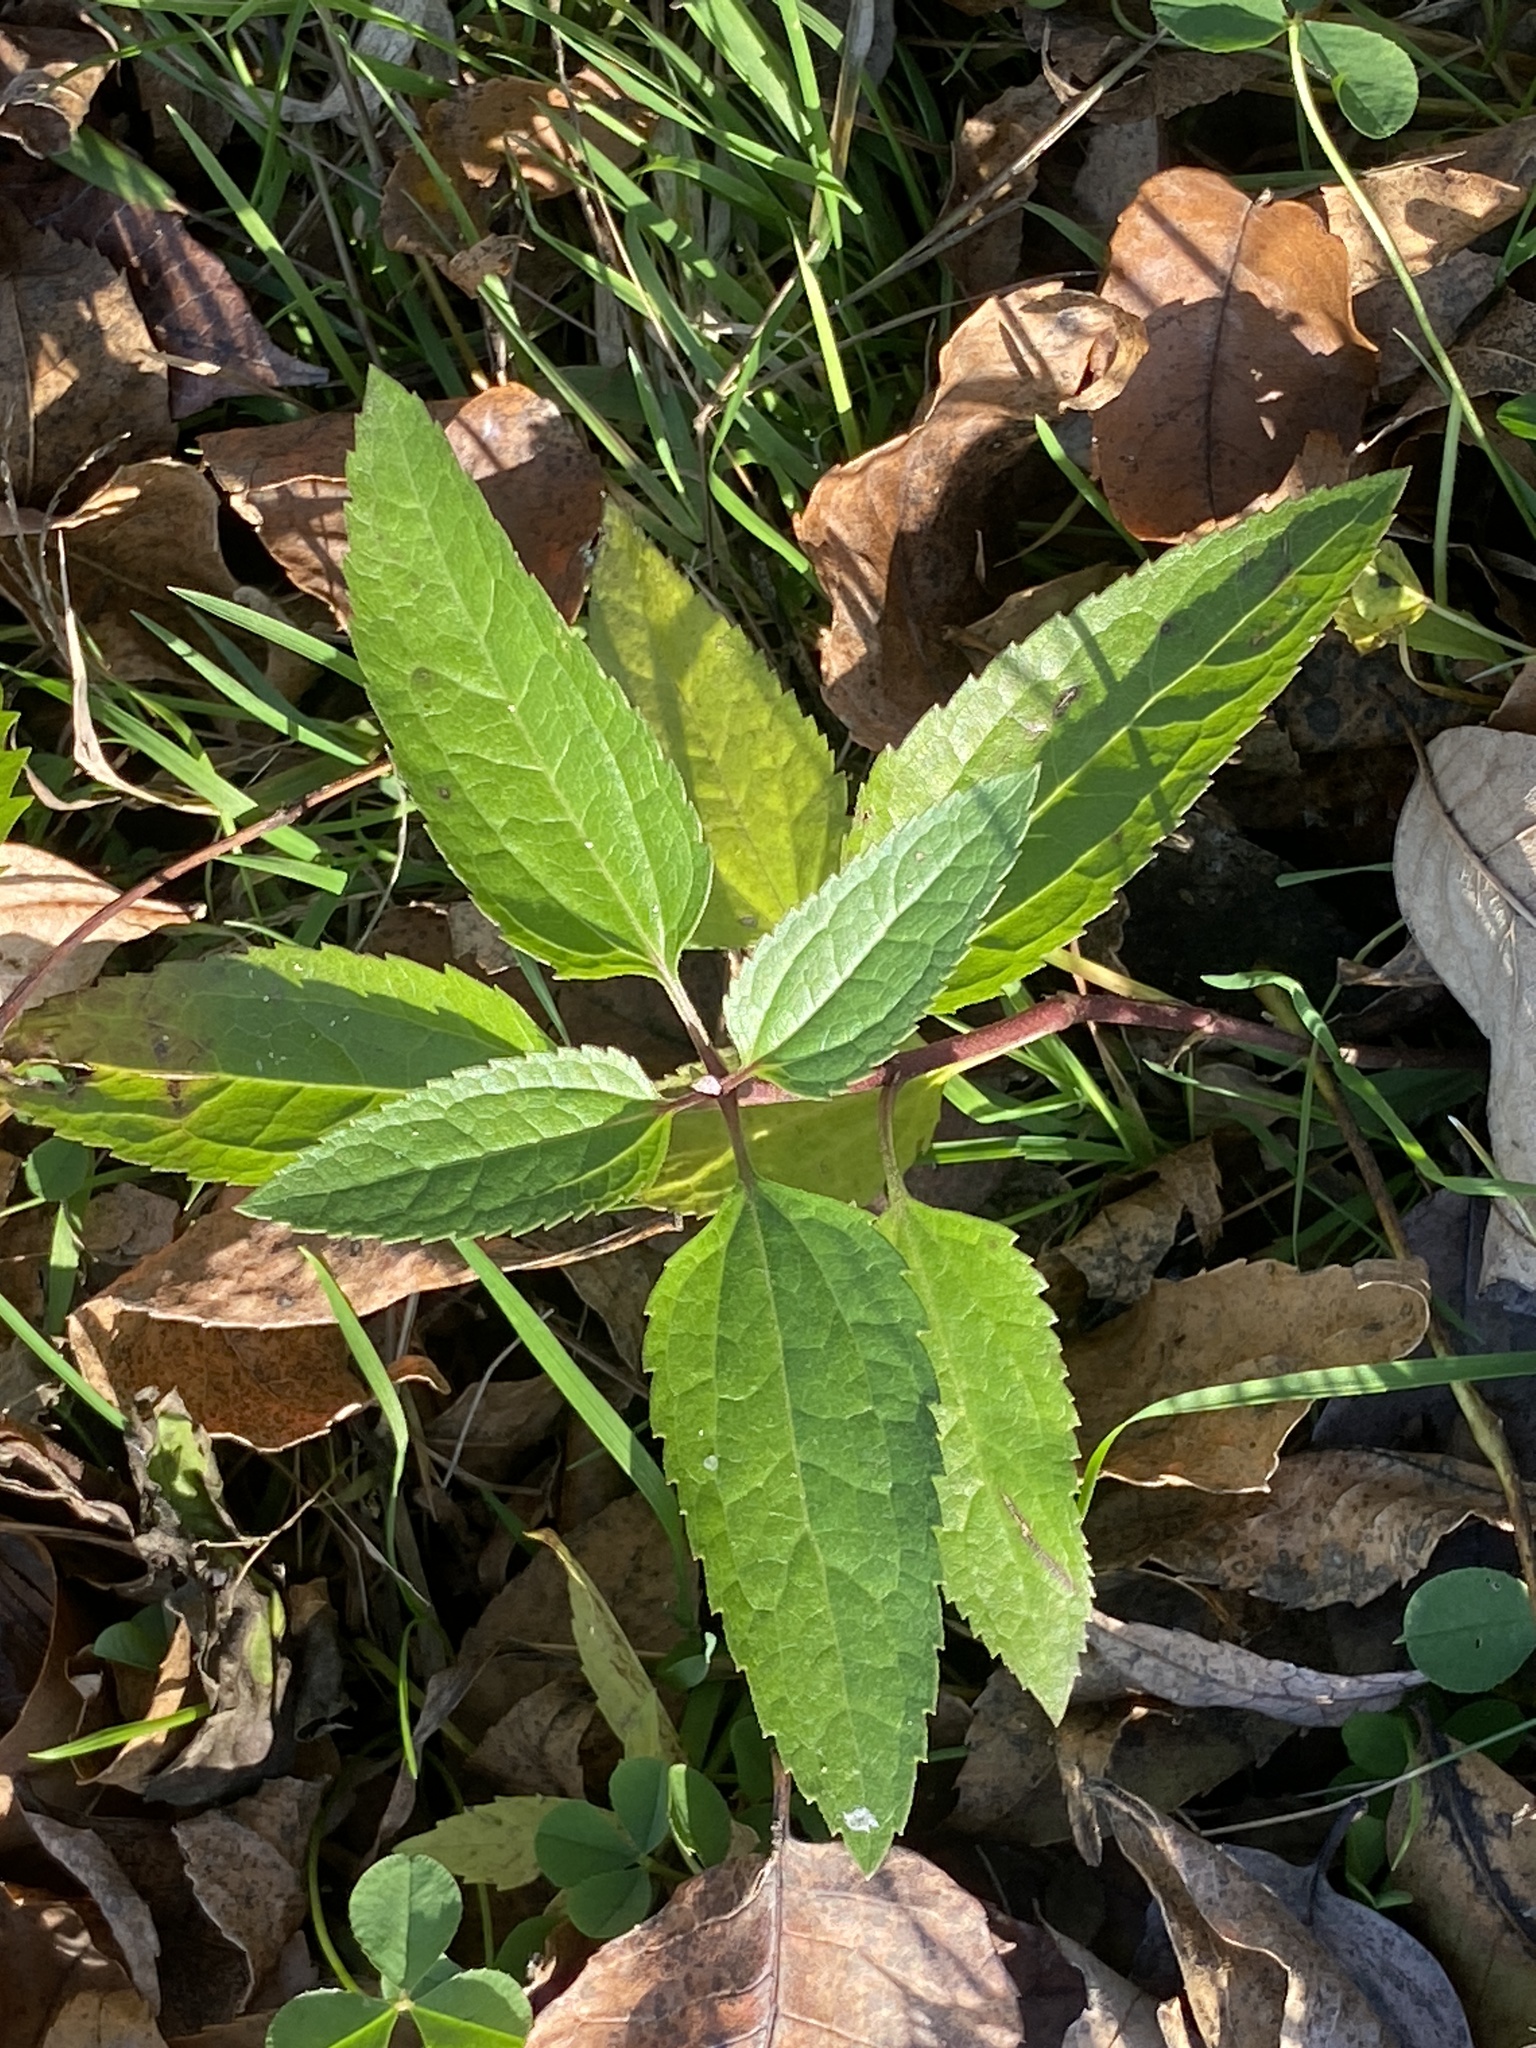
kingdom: Plantae
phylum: Tracheophyta
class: Magnoliopsida
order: Asterales
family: Asteraceae
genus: Eupatorium
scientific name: Eupatorium serotinum
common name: Late boneset
